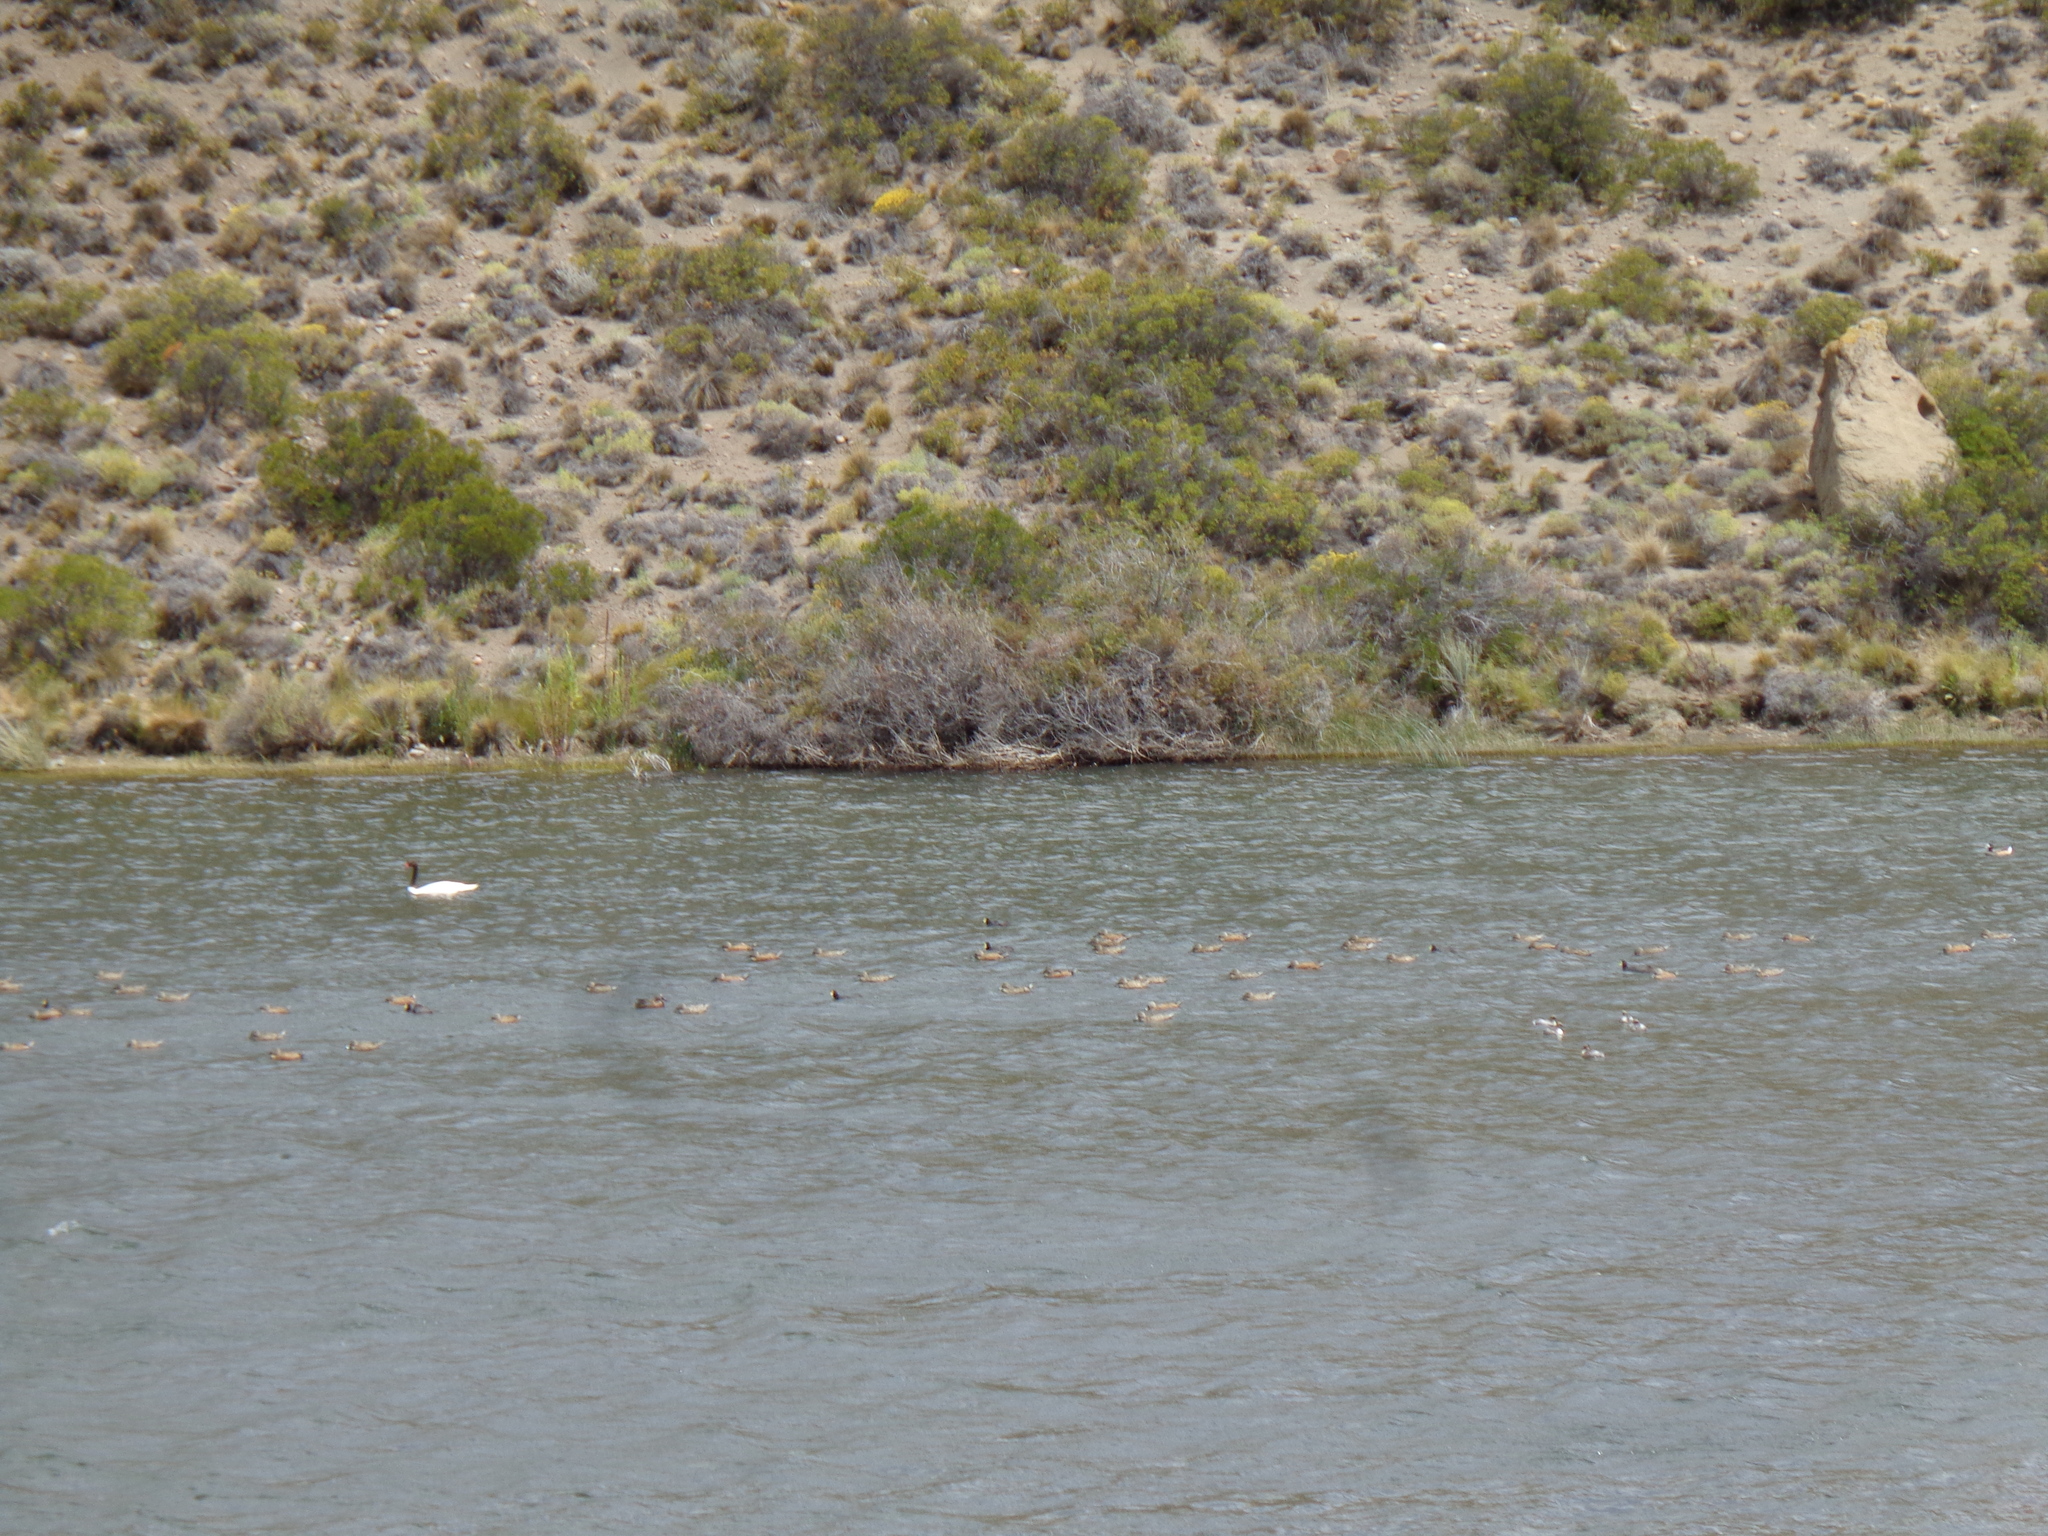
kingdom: Animalia
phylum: Chordata
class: Aves
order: Gruiformes
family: Rallidae
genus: Fulica
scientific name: Fulica leucoptera
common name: White-winged coot
